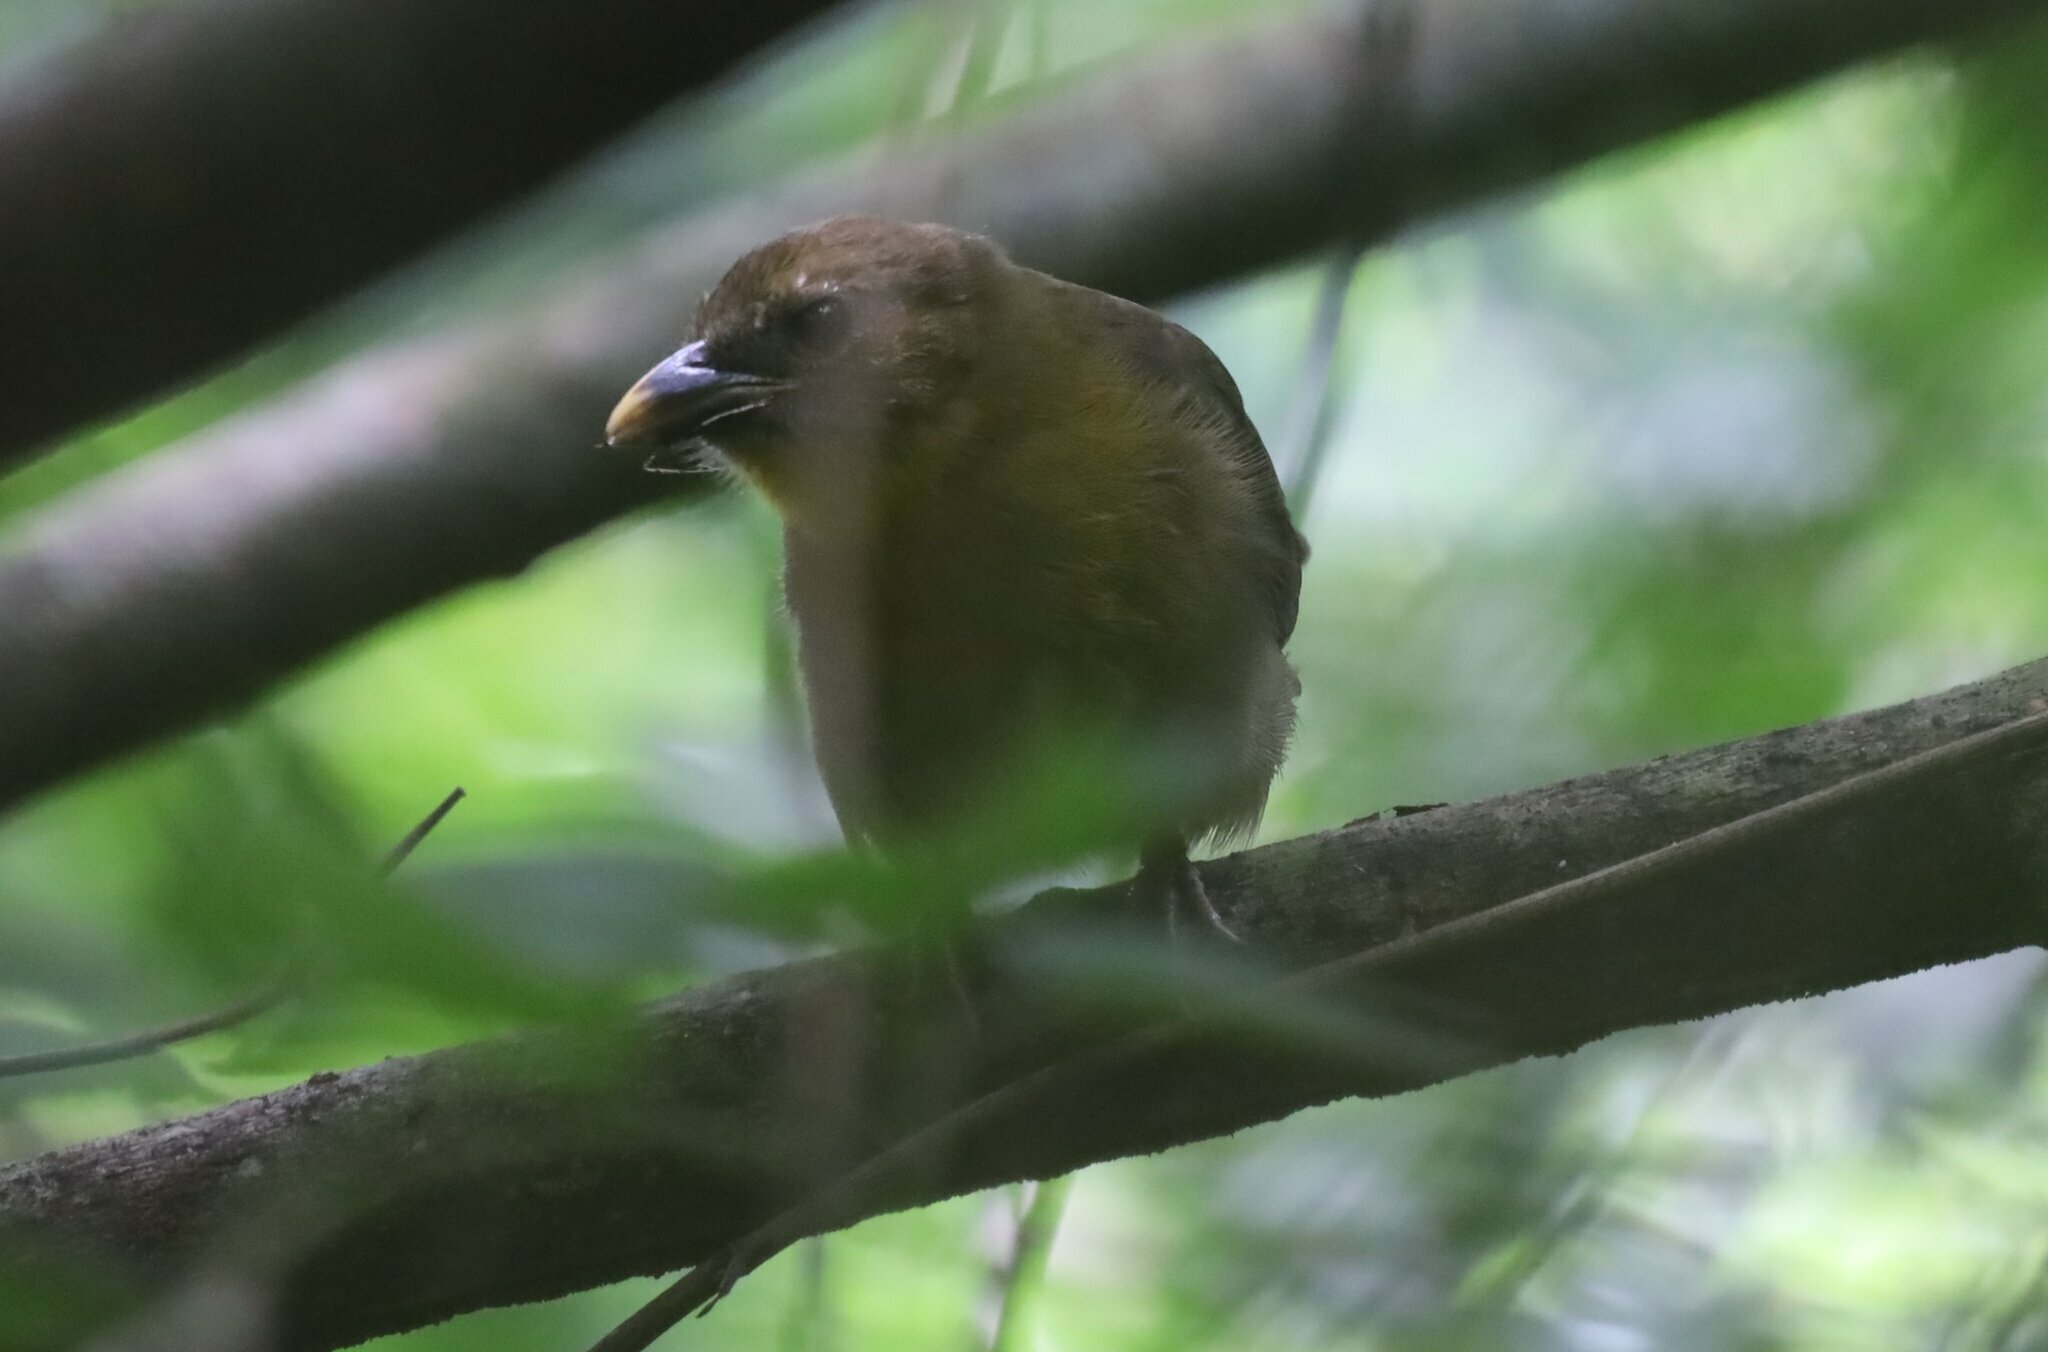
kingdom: Animalia
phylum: Chordata
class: Aves
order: Passeriformes
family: Cardinalidae
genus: Habia
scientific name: Habia fuscicauda
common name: Red-throated ant-tanager
